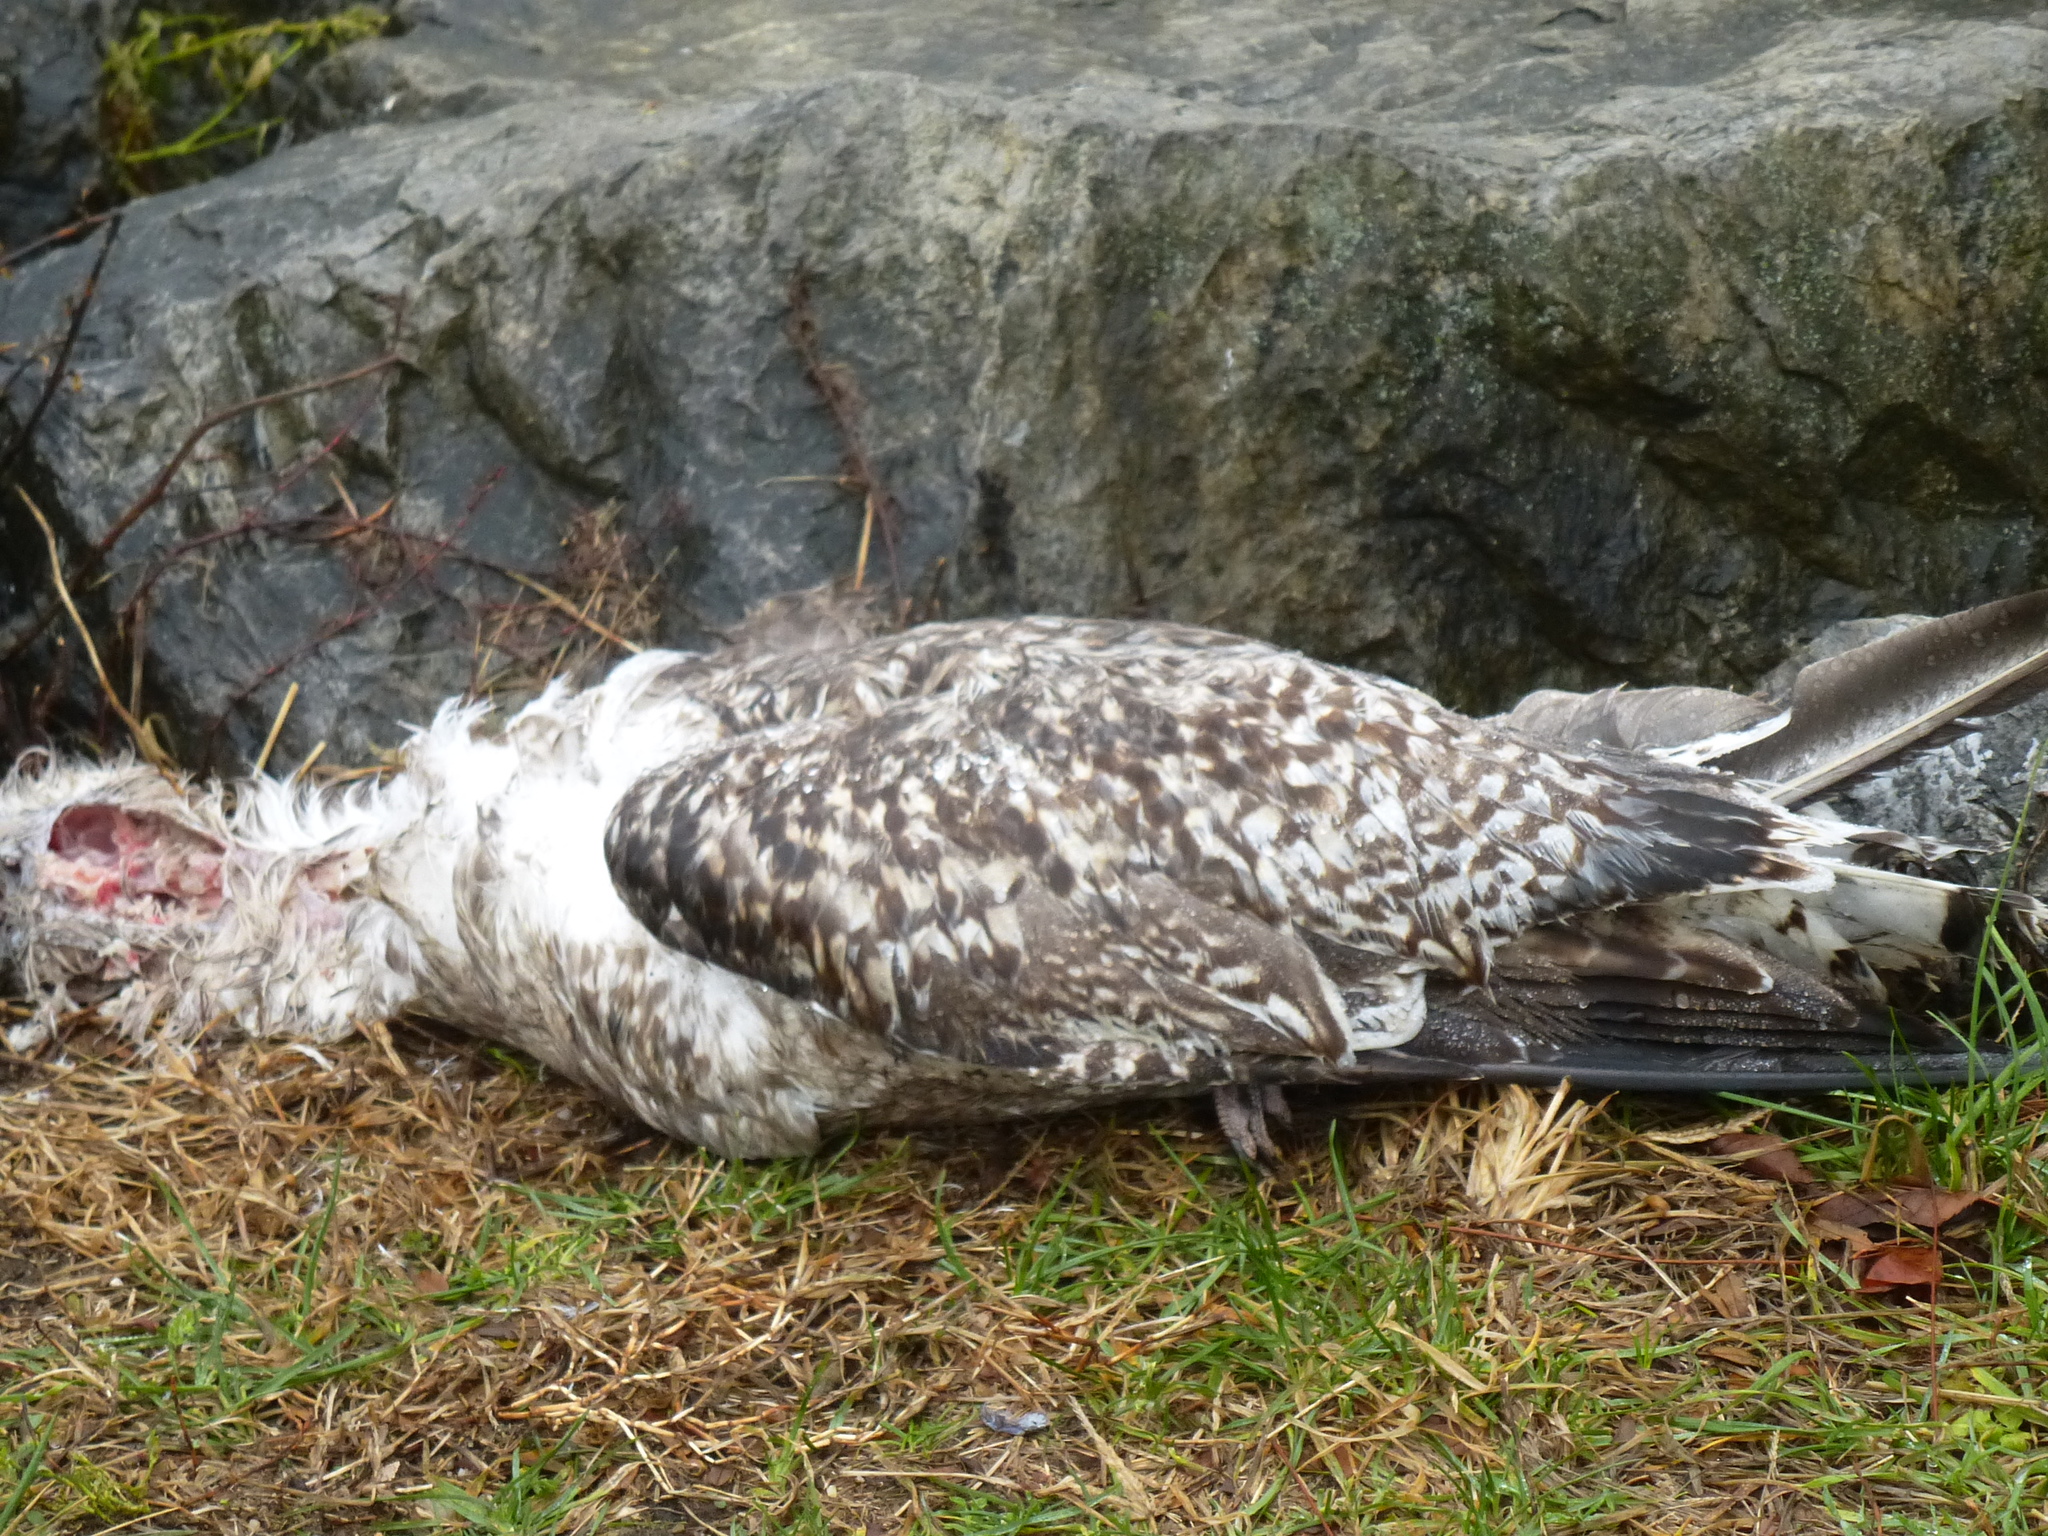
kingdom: Animalia
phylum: Chordata
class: Aves
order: Charadriiformes
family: Laridae
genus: Larus
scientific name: Larus marinus
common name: Great black-backed gull
